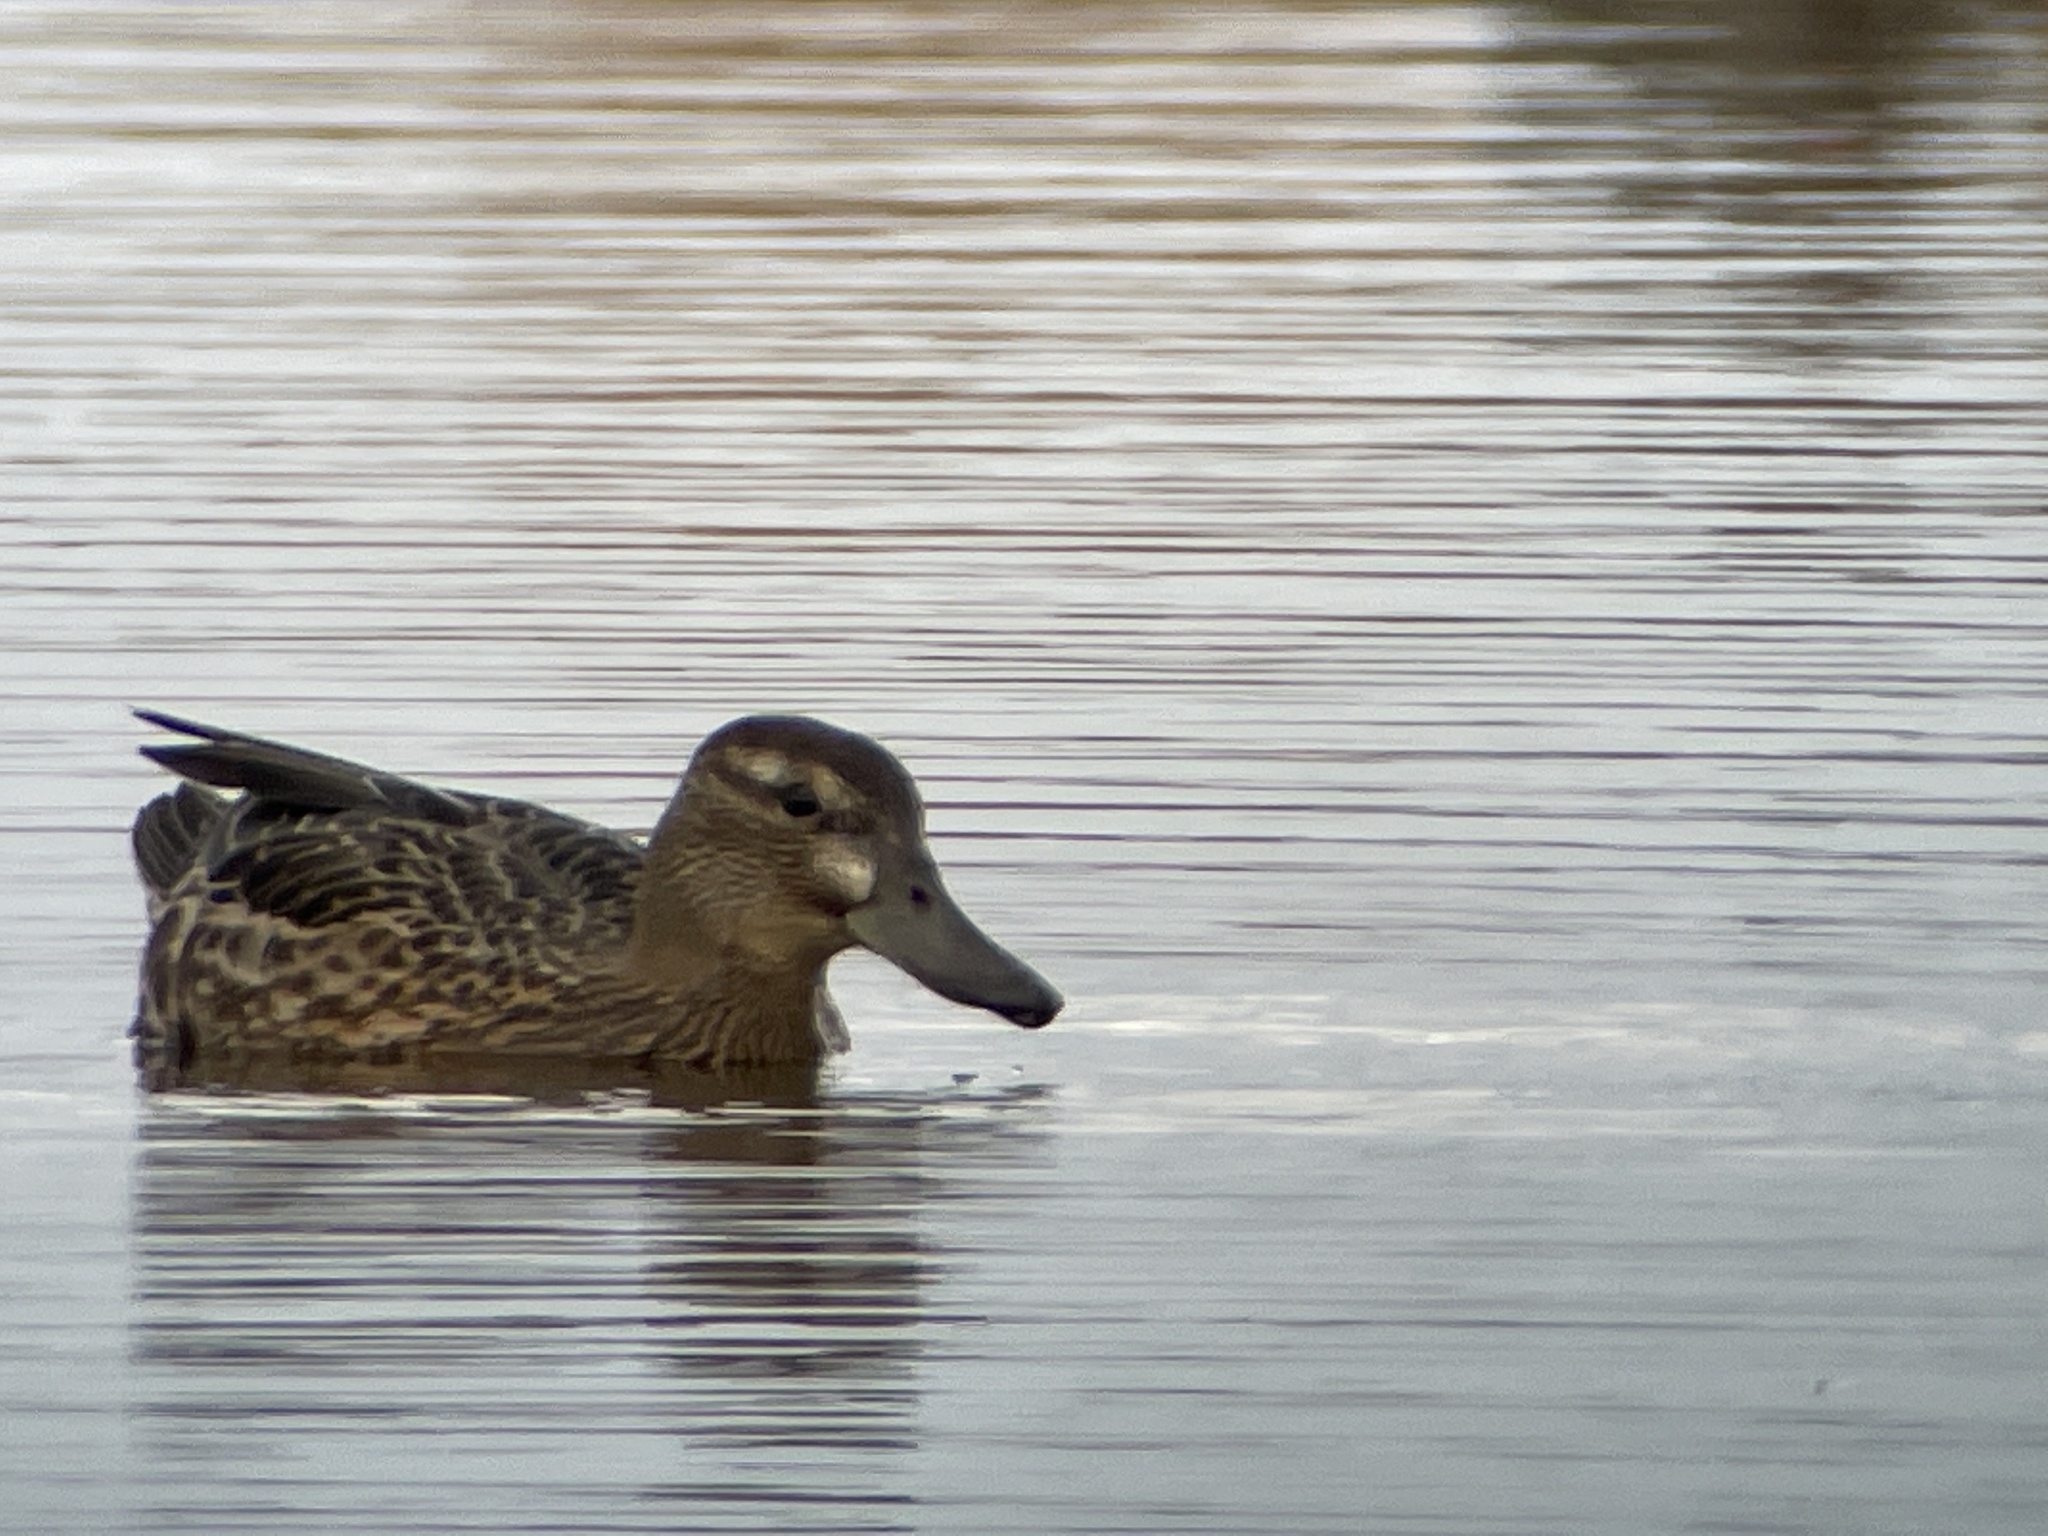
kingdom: Animalia
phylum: Chordata
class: Aves
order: Anseriformes
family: Anatidae
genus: Spatula
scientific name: Spatula querquedula
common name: Garganey
